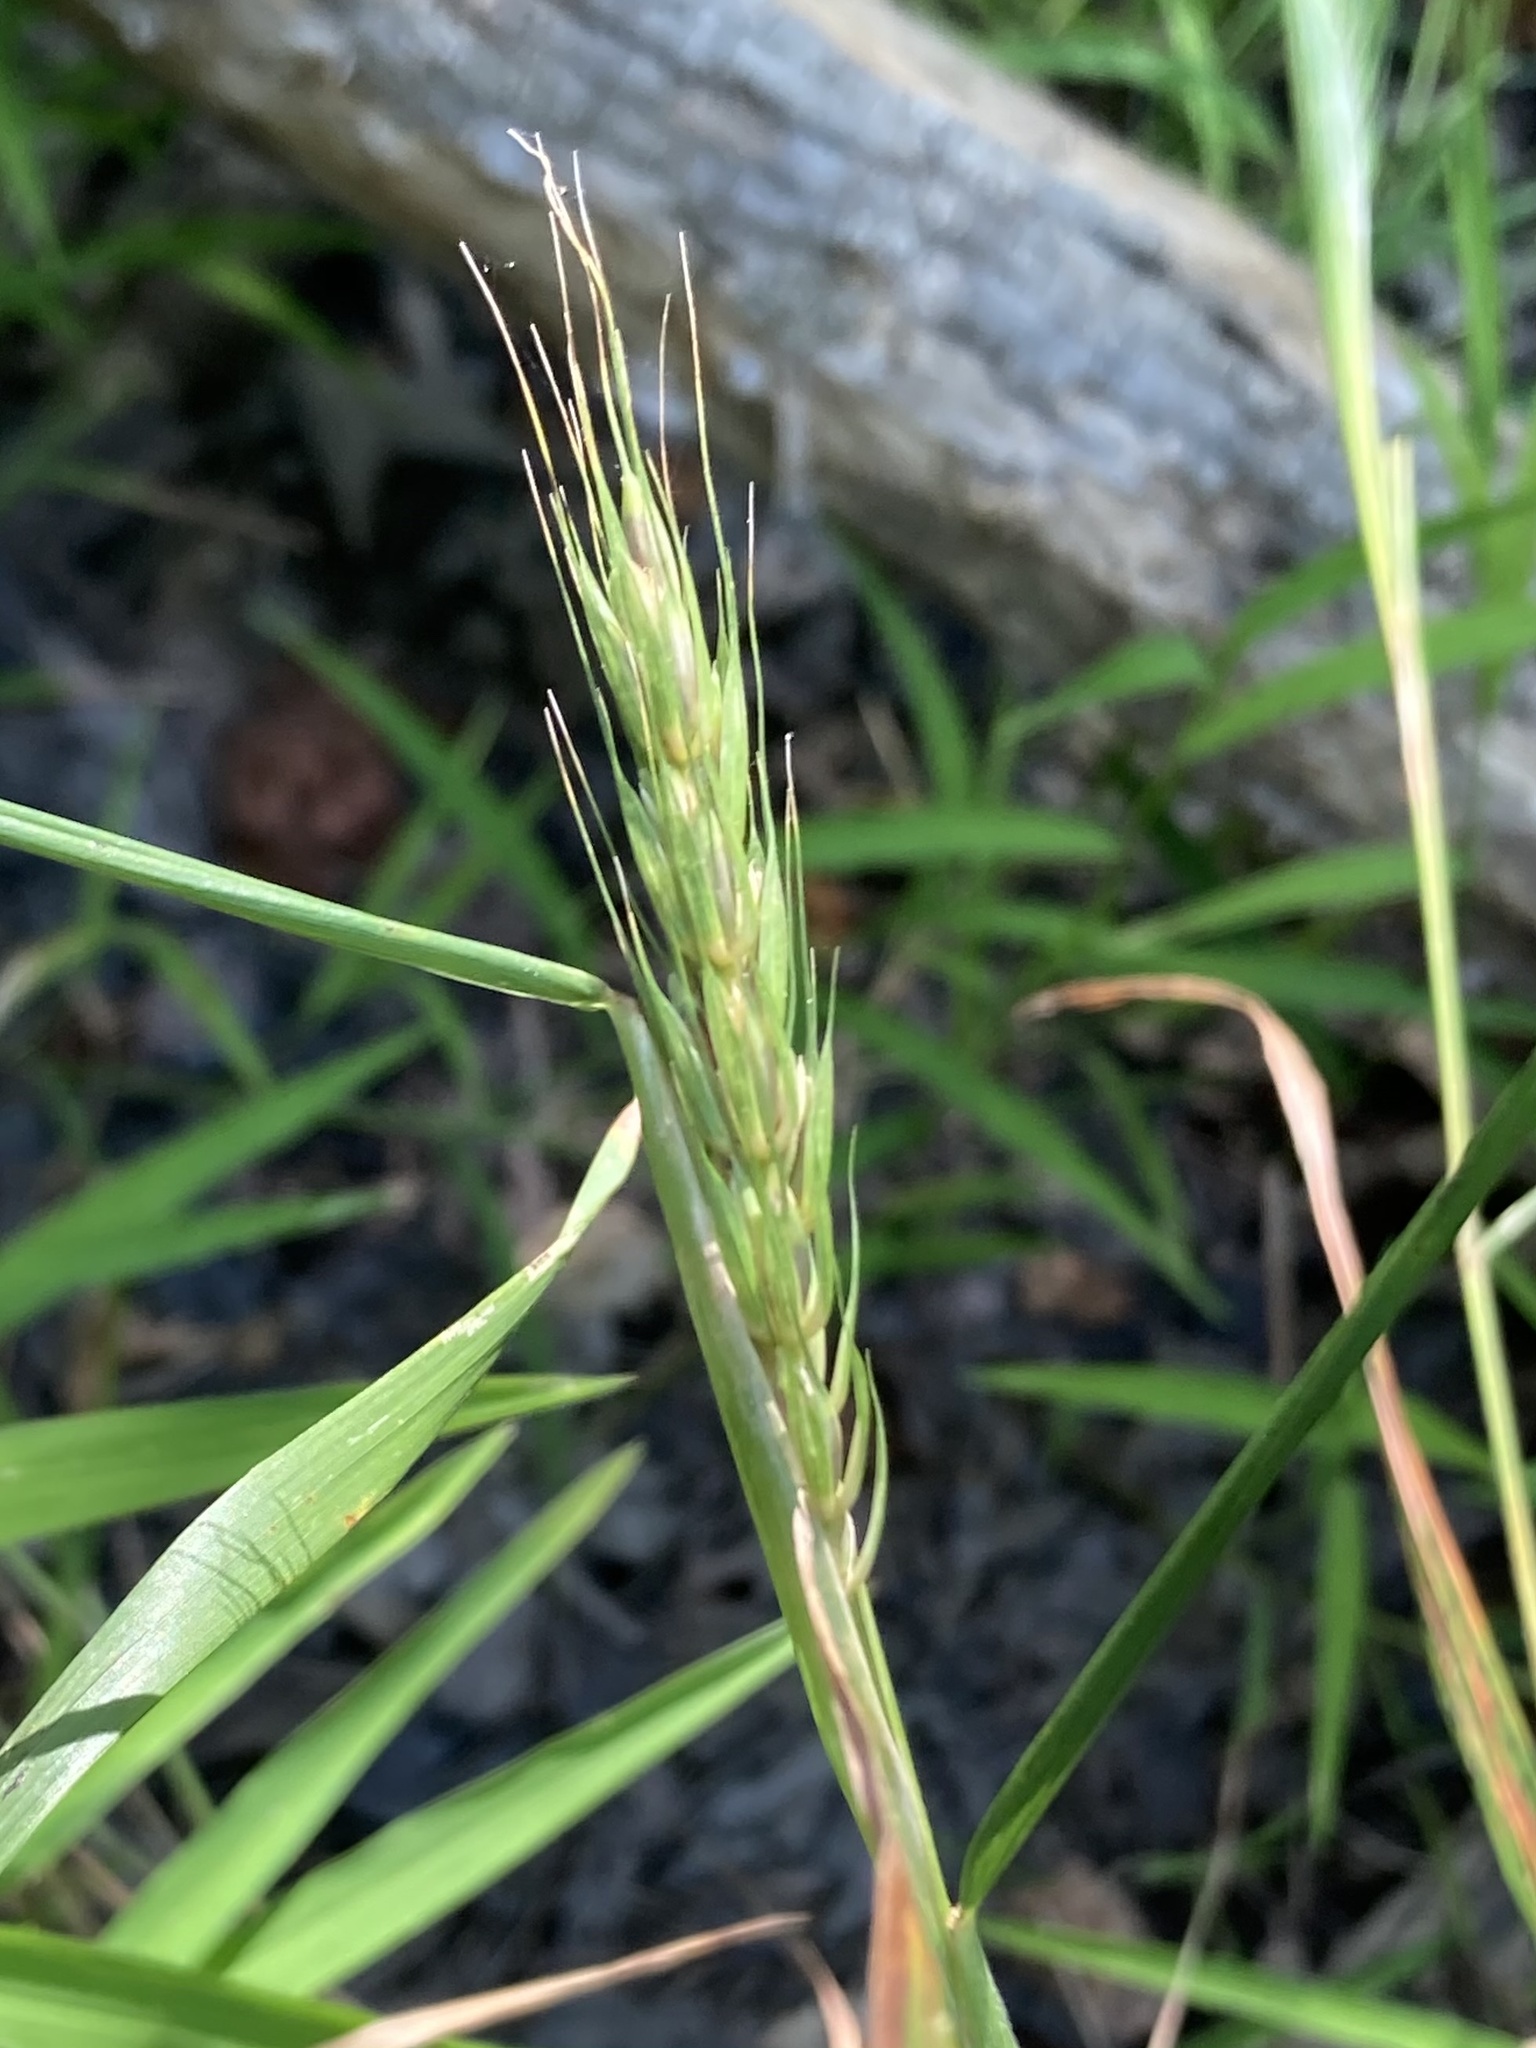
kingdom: Plantae
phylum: Tracheophyta
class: Liliopsida
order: Poales
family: Poaceae
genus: Elymus
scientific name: Elymus virginicus
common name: Common eastern wildrye
